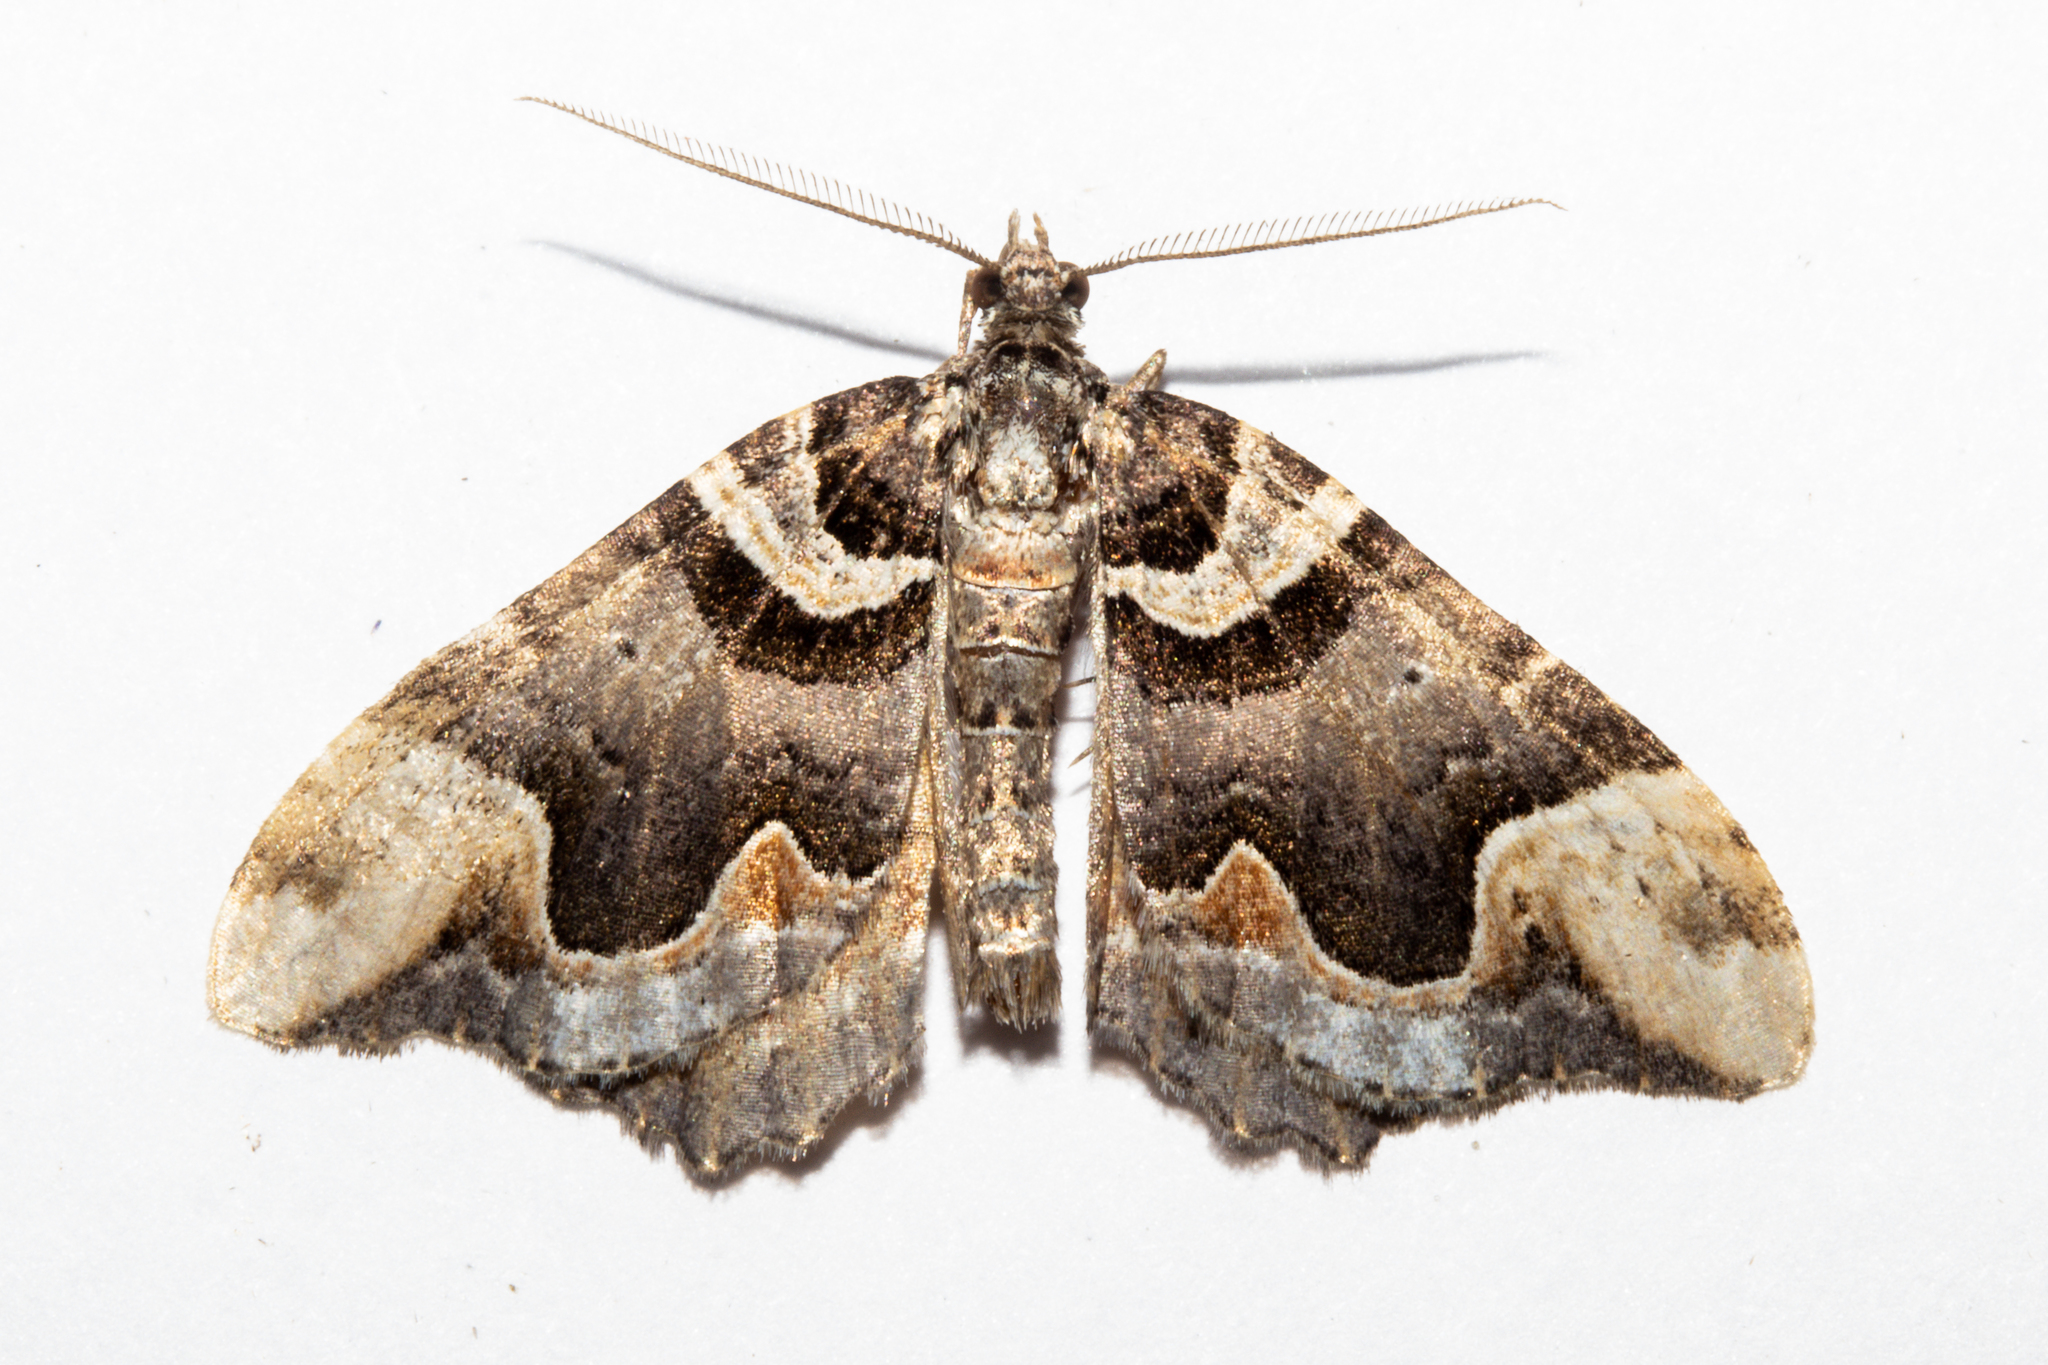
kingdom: Animalia
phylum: Arthropoda
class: Insecta
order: Lepidoptera
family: Geometridae
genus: Asaphodes
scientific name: Asaphodes chlamydota
